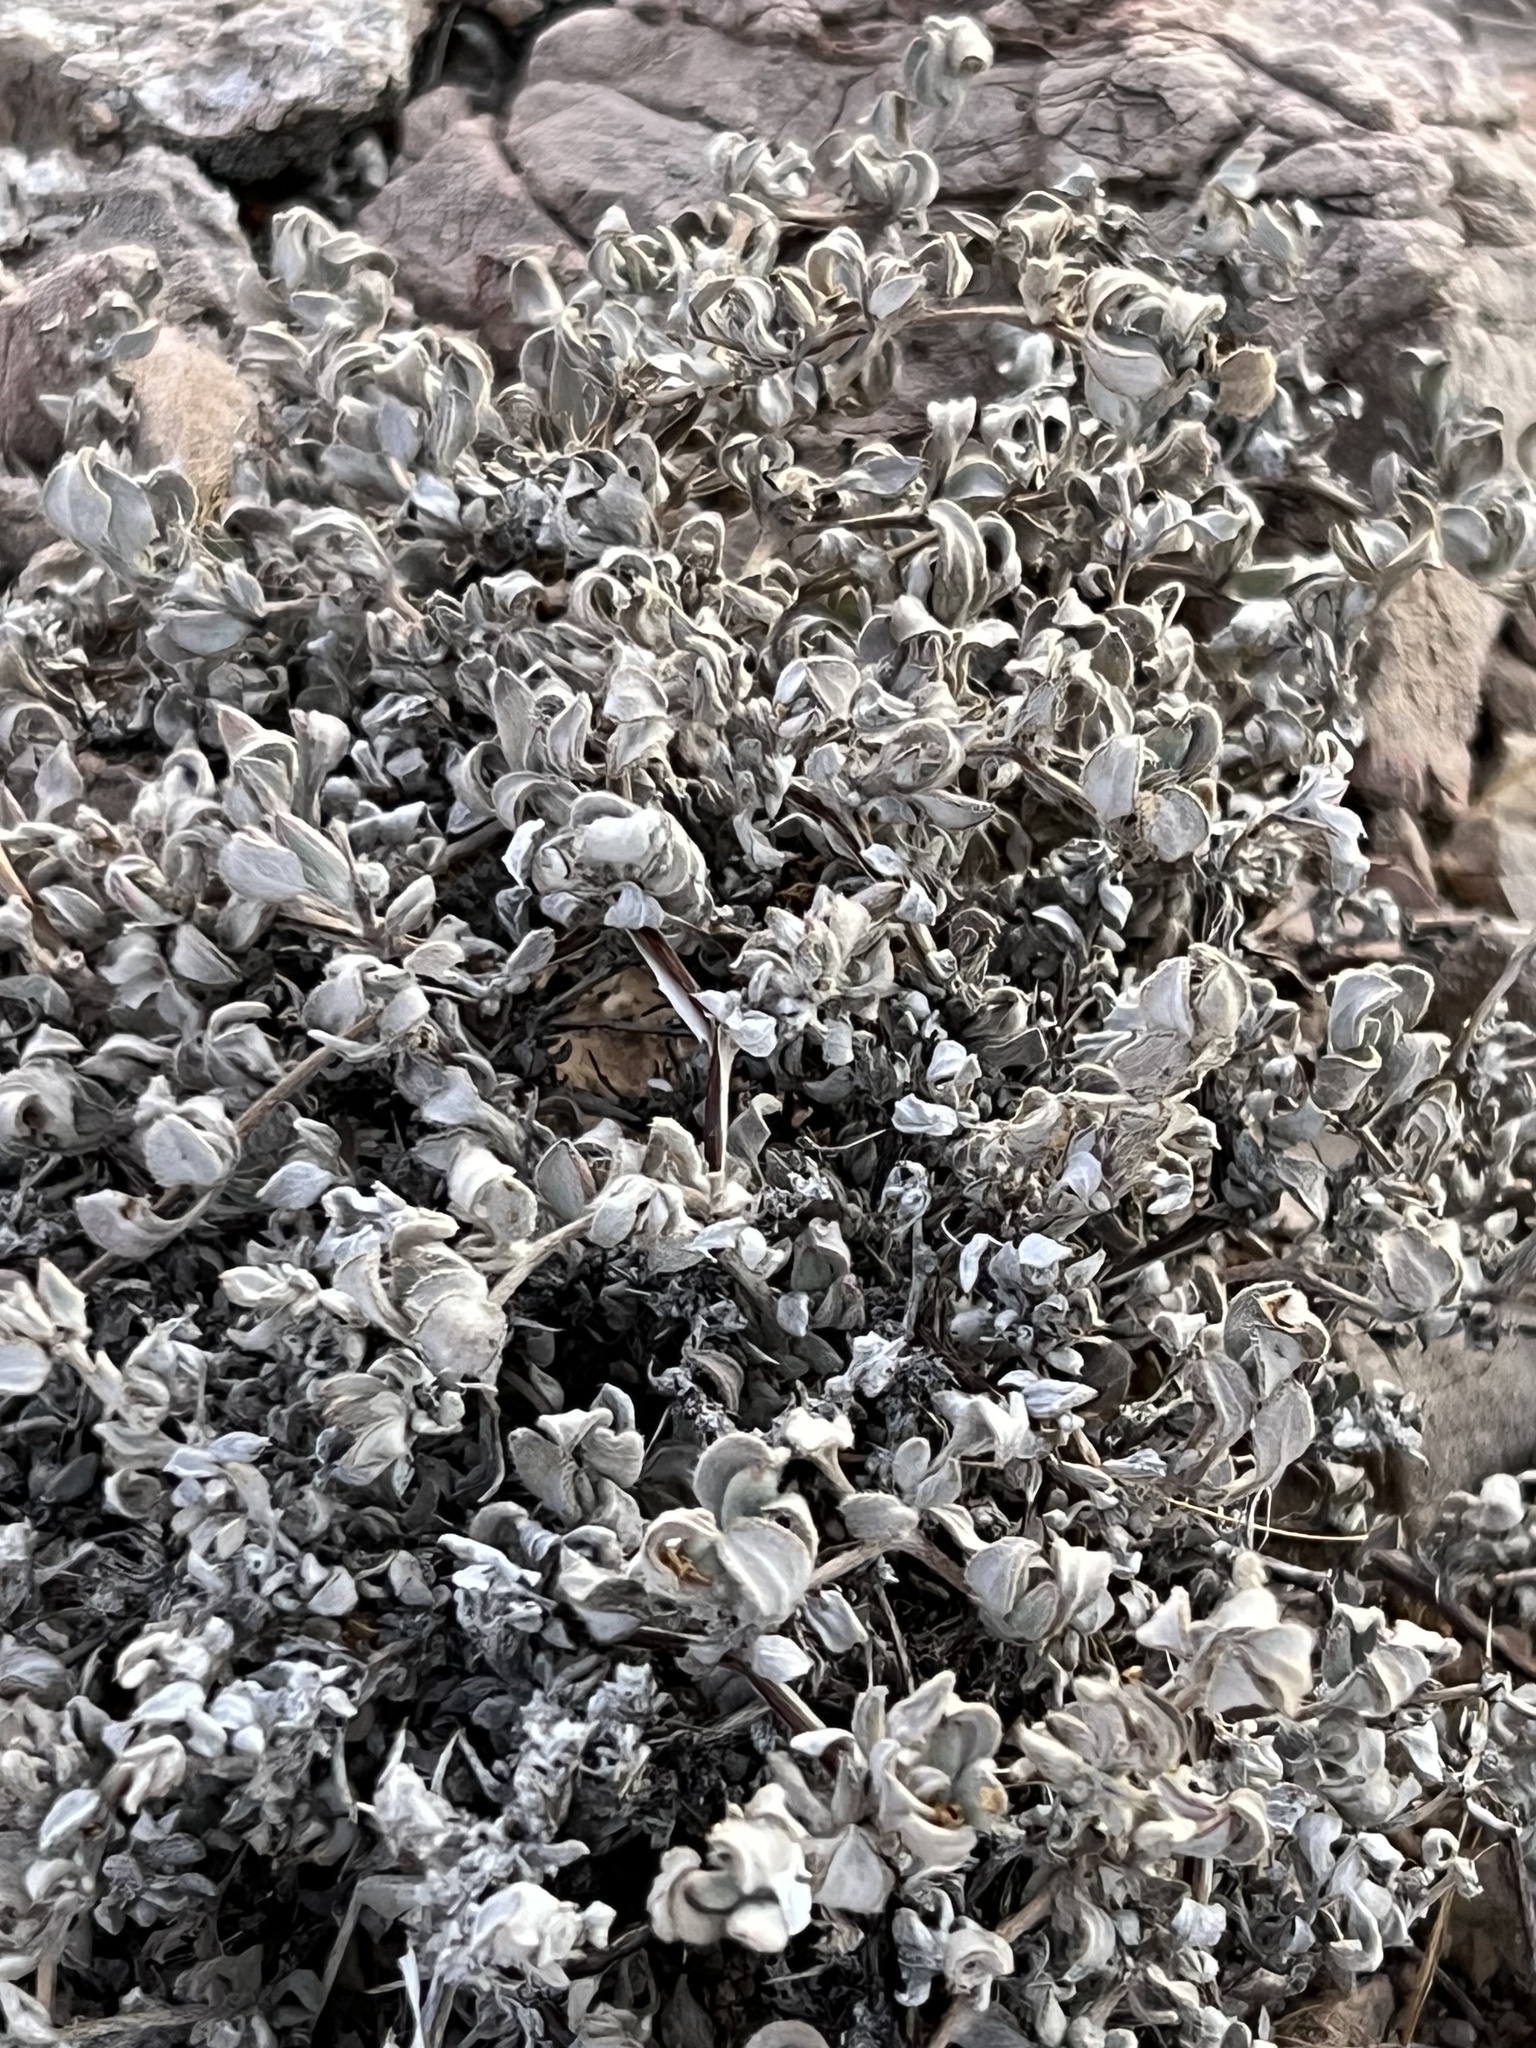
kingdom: Plantae
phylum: Tracheophyta
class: Magnoliopsida
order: Boraginales
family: Ehretiaceae
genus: Tiquilia
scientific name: Tiquilia canescens
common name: Hairy tiquilia
